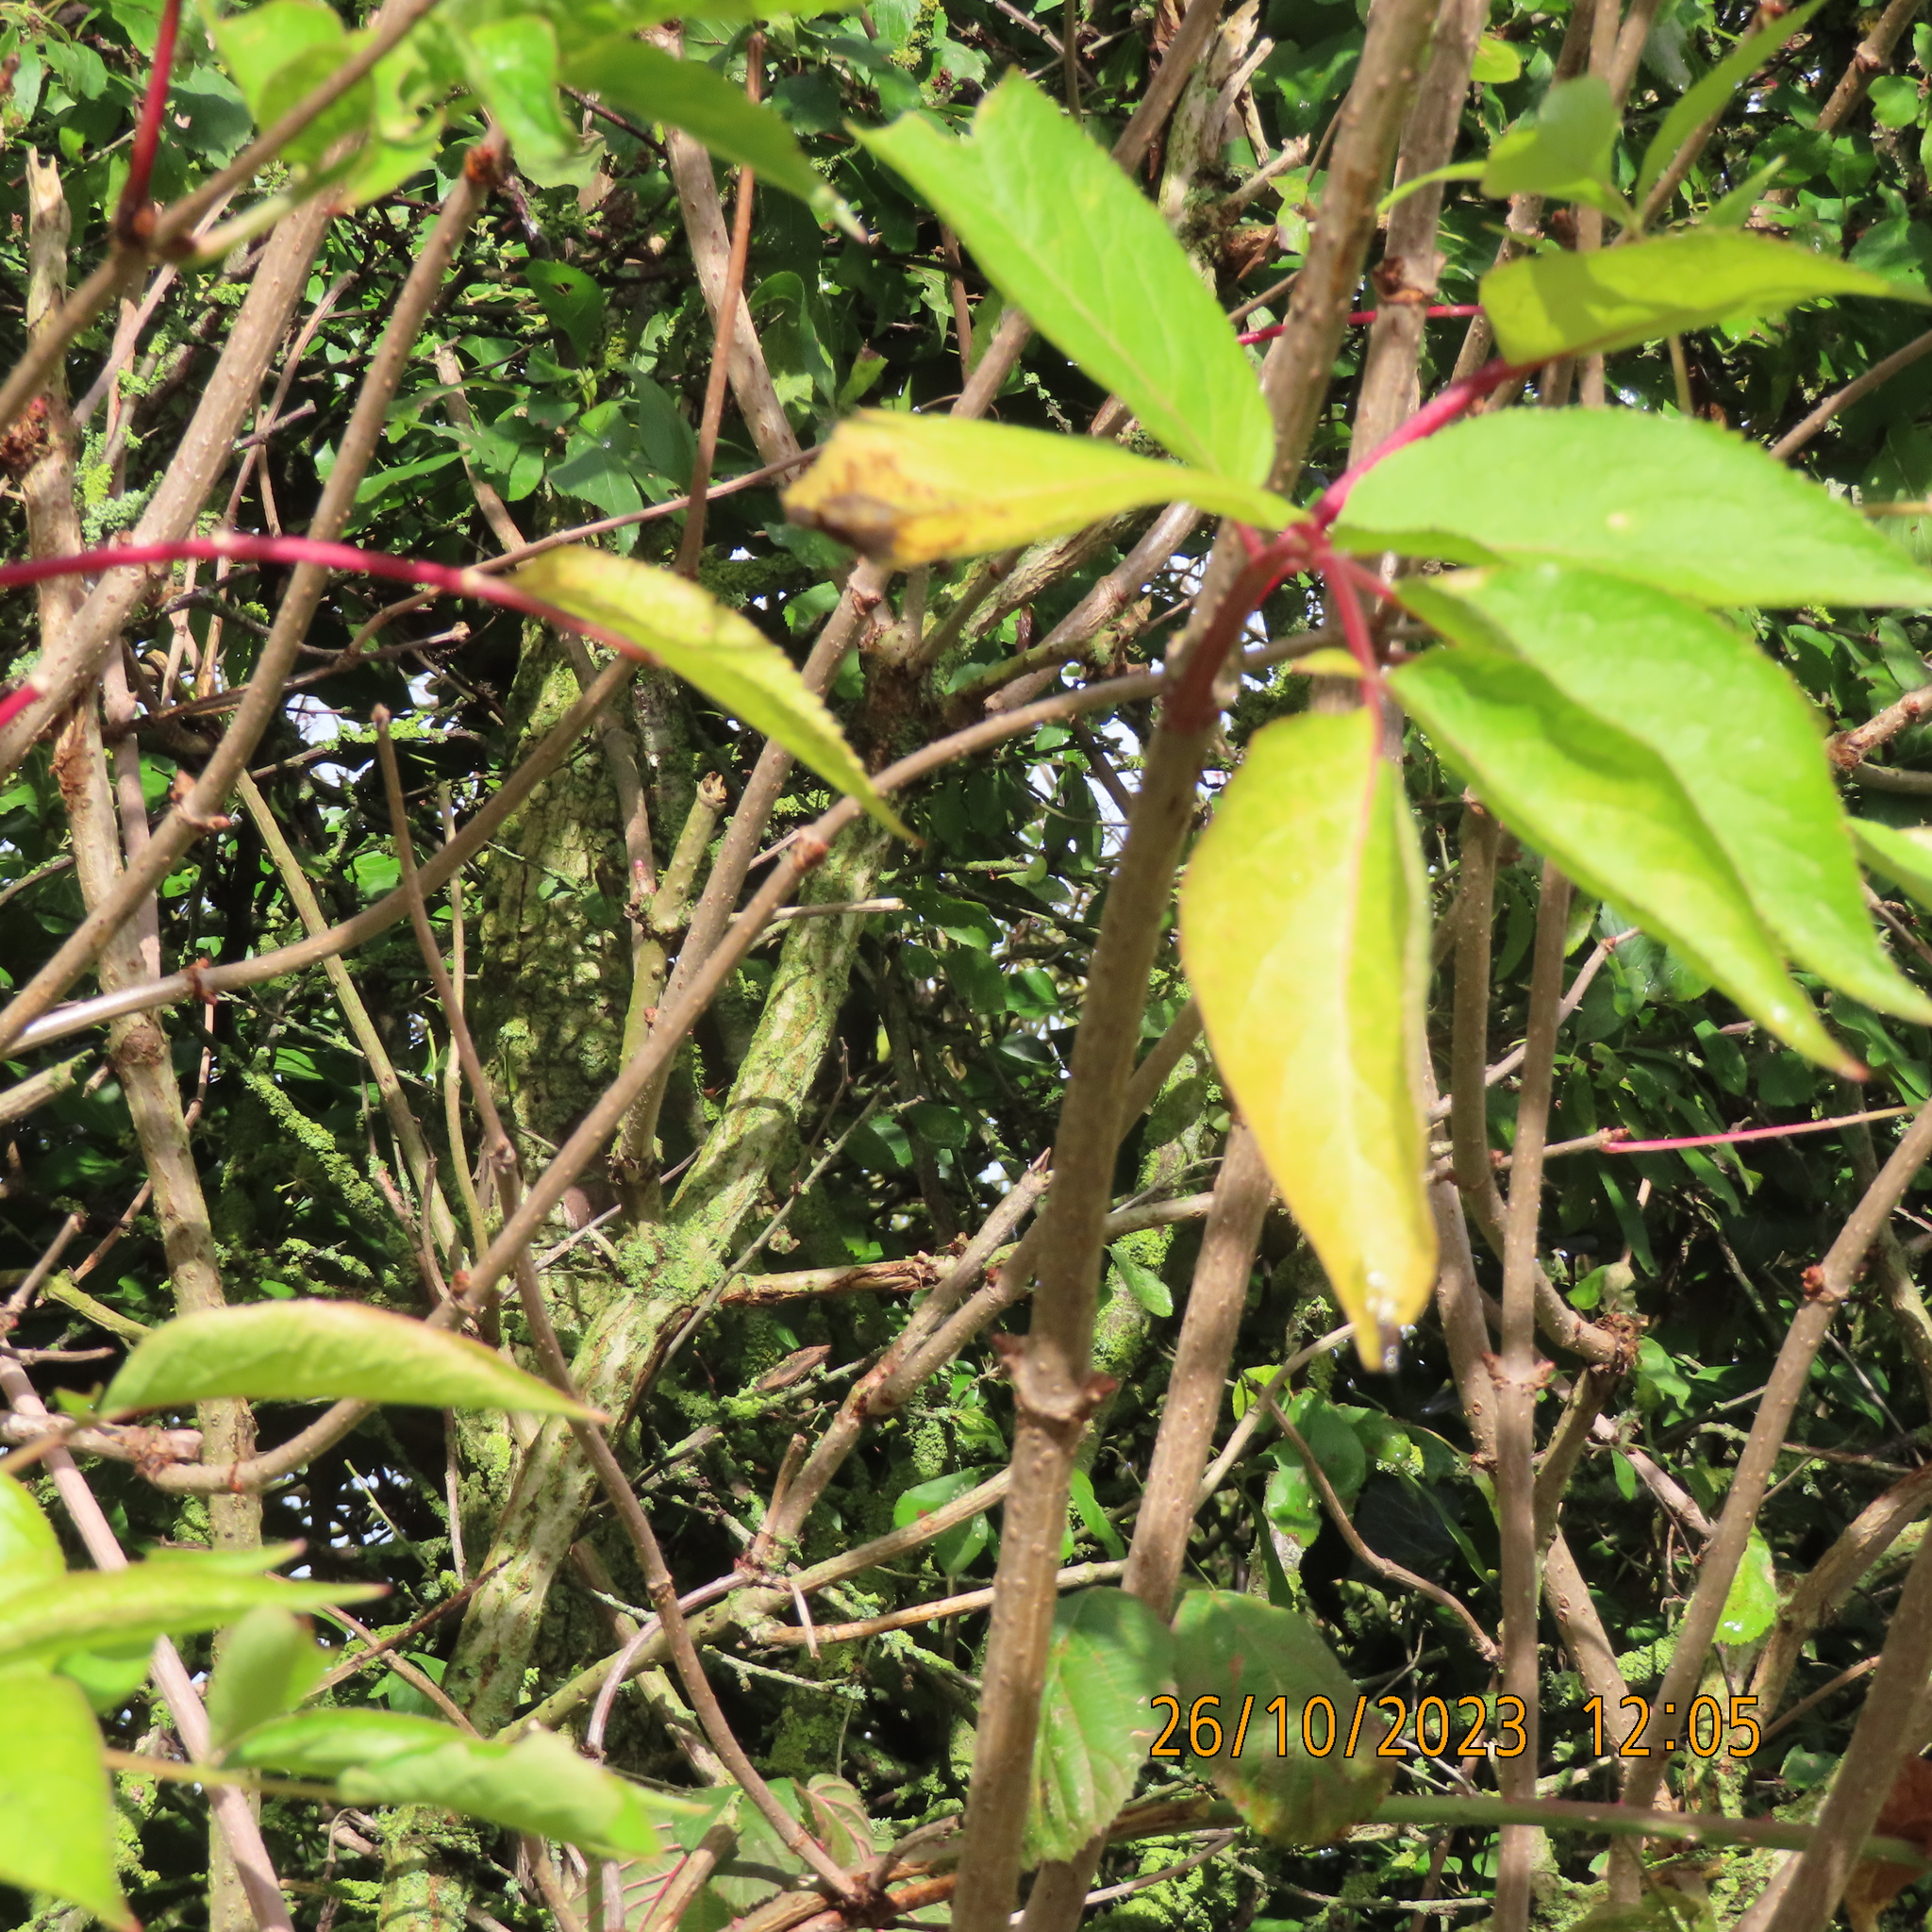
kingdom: Plantae
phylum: Tracheophyta
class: Magnoliopsida
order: Dipsacales
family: Viburnaceae
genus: Sambucus
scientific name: Sambucus nigra
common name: Elder
